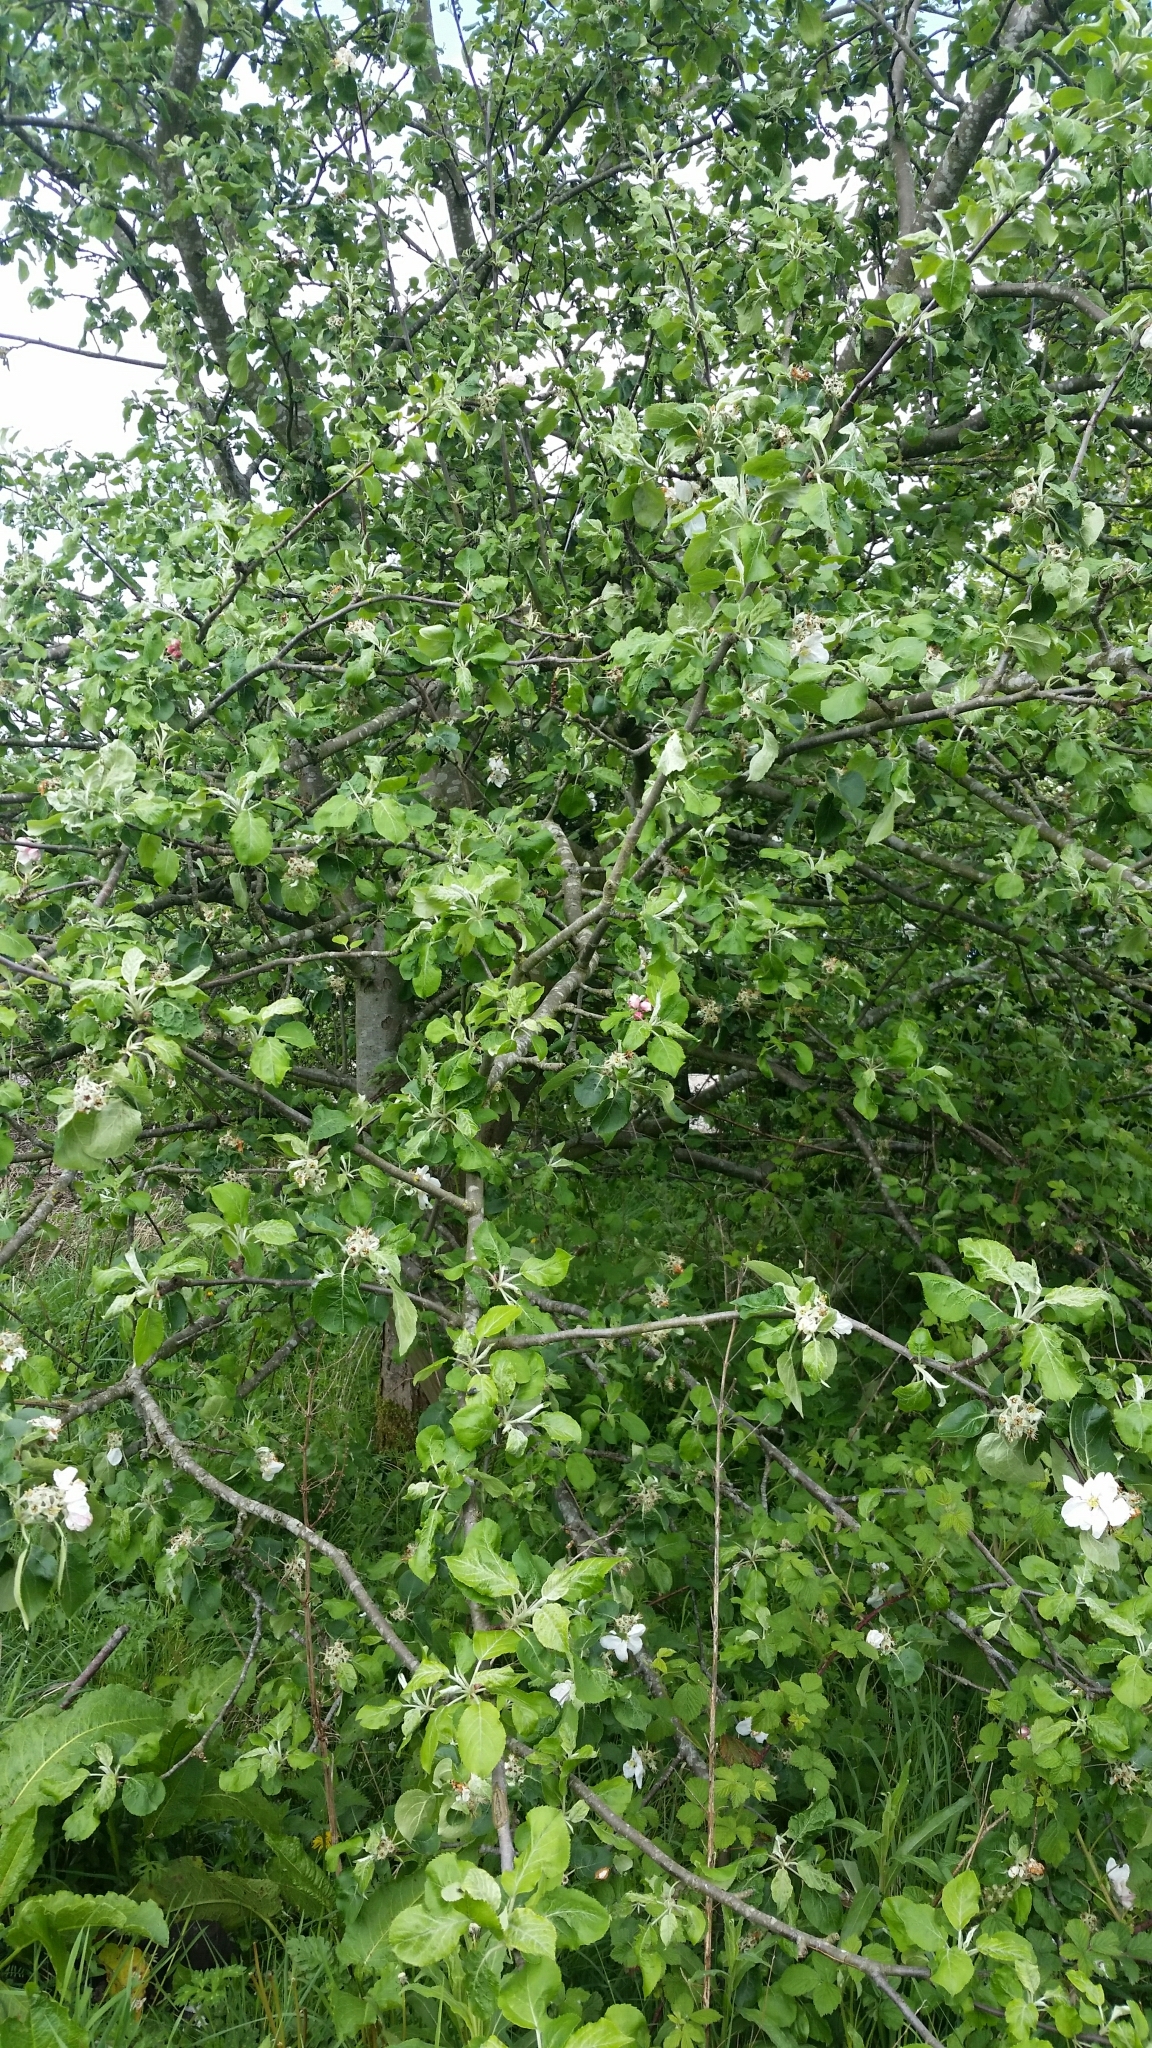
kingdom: Plantae
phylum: Tracheophyta
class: Magnoliopsida
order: Rosales
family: Rosaceae
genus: Malus
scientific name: Malus domestica
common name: Apple
